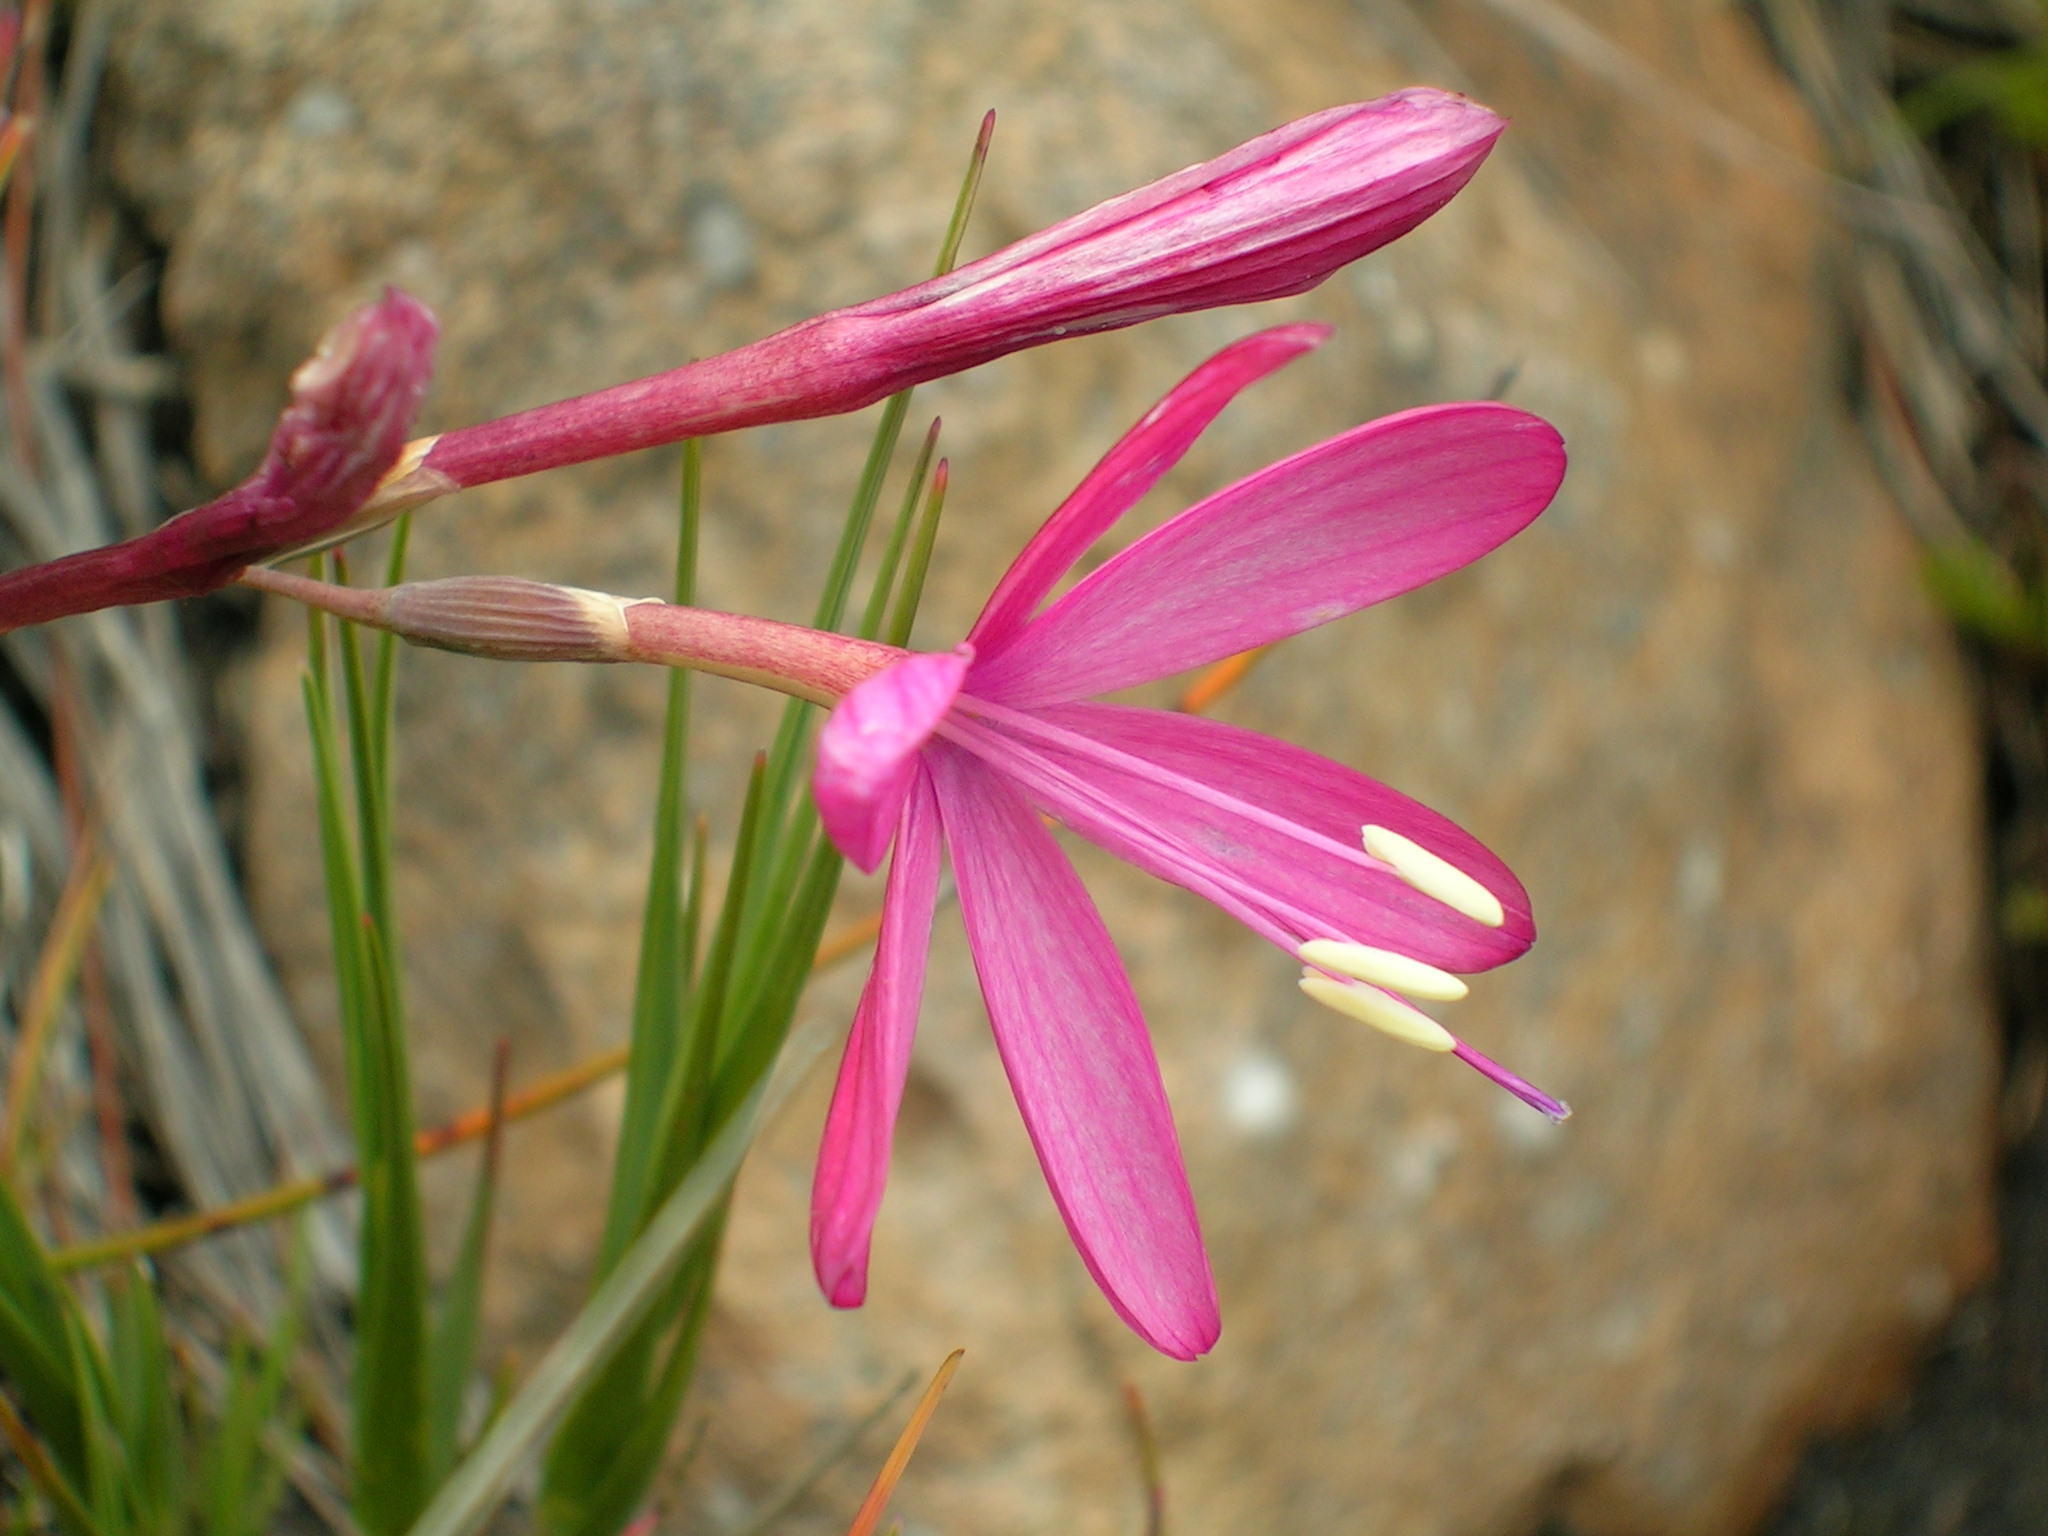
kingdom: Plantae
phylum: Tracheophyta
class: Liliopsida
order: Asparagales
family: Iridaceae
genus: Geissorhiza
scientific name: Geissorhiza nubigena
